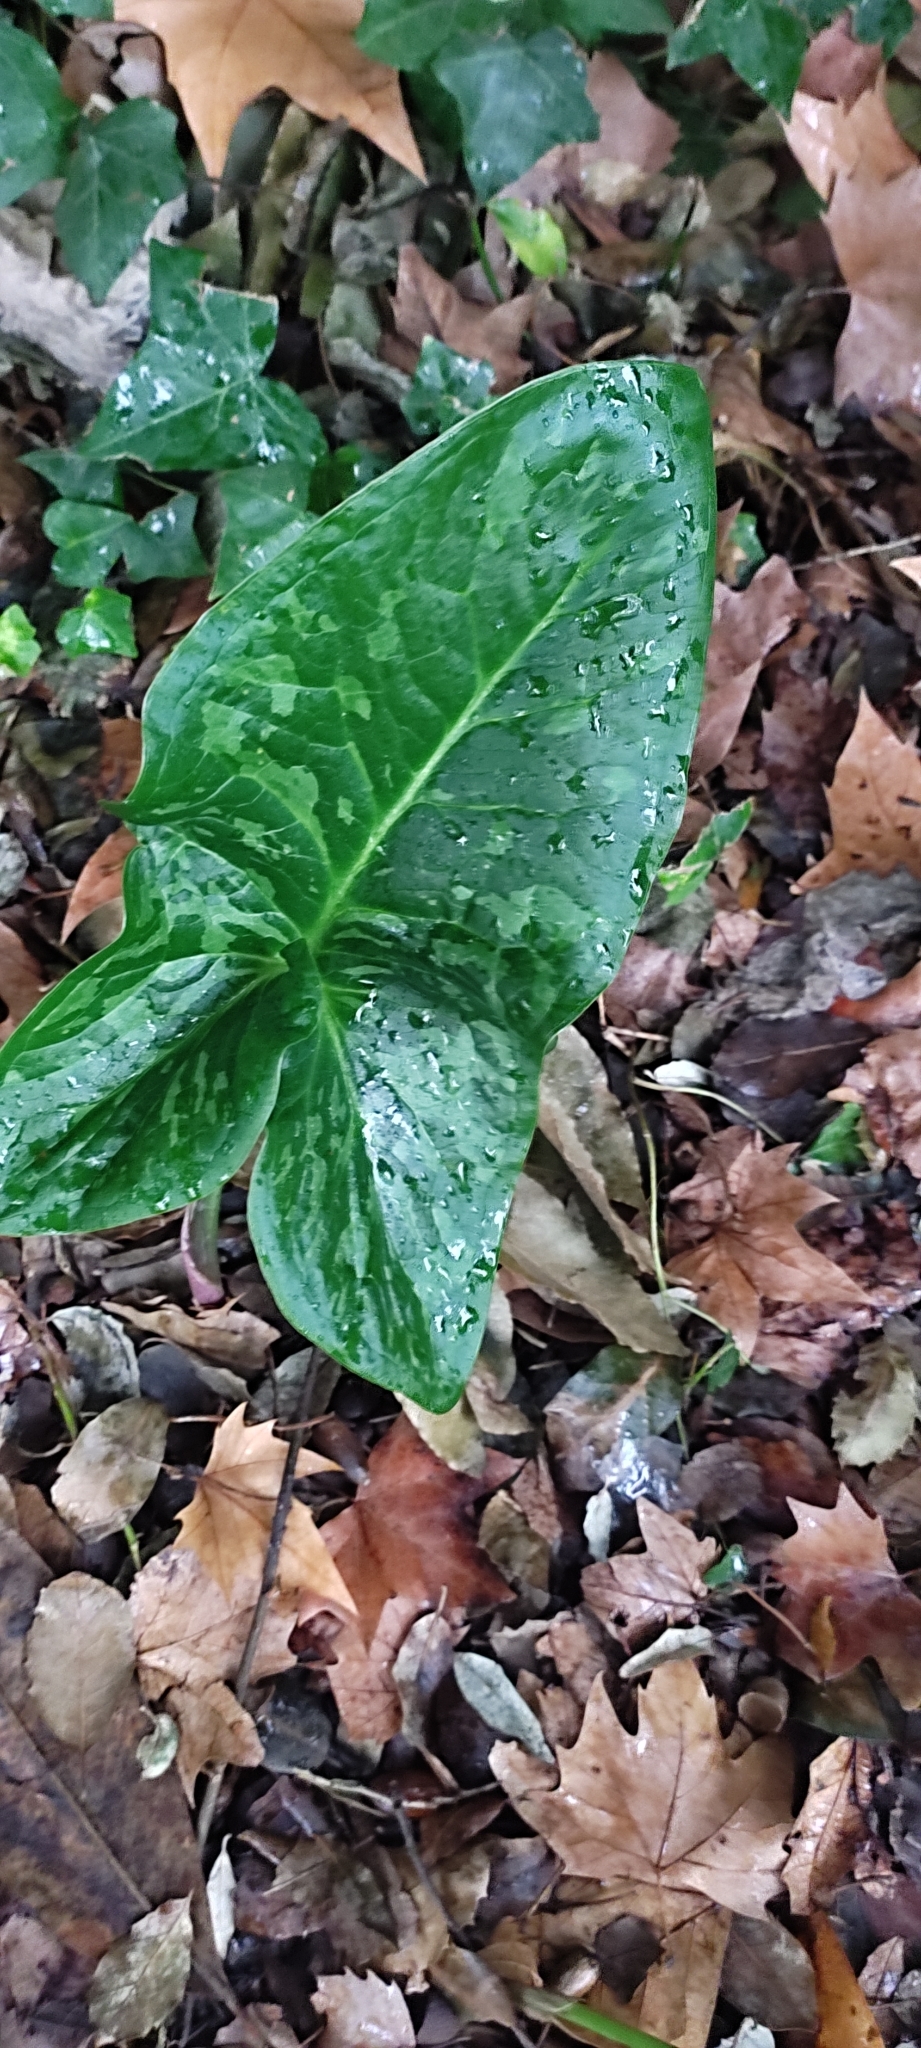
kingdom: Plantae
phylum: Tracheophyta
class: Liliopsida
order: Alismatales
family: Araceae
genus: Arum
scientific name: Arum italicum
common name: Italian lords-and-ladies
